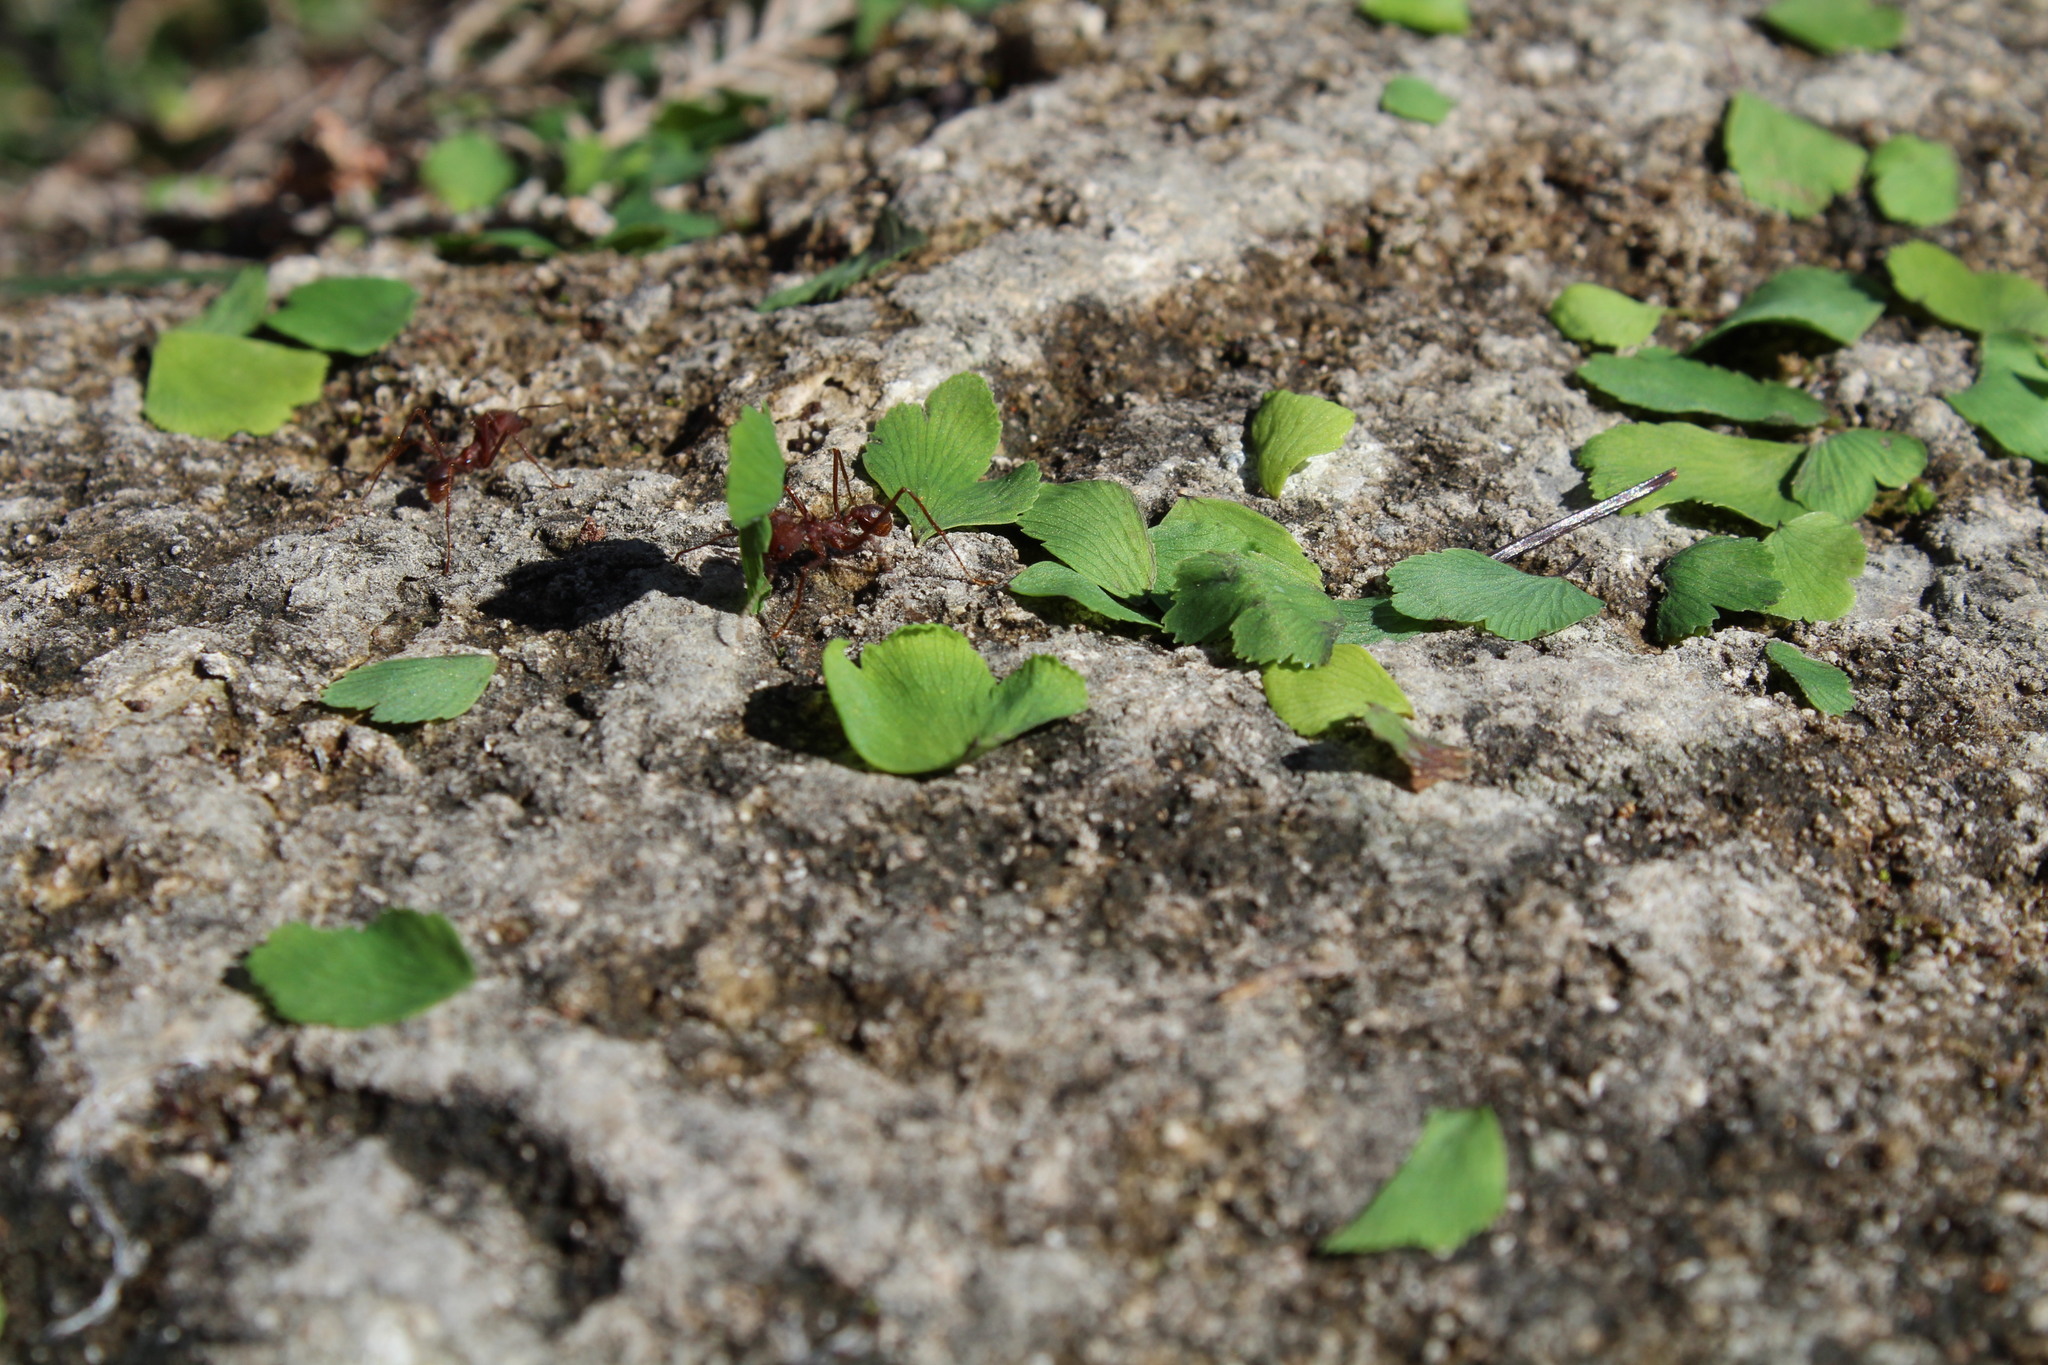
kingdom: Animalia
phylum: Arthropoda
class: Insecta
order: Hymenoptera
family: Formicidae
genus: Atta
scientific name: Atta texana
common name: Texas leafcutting ant
